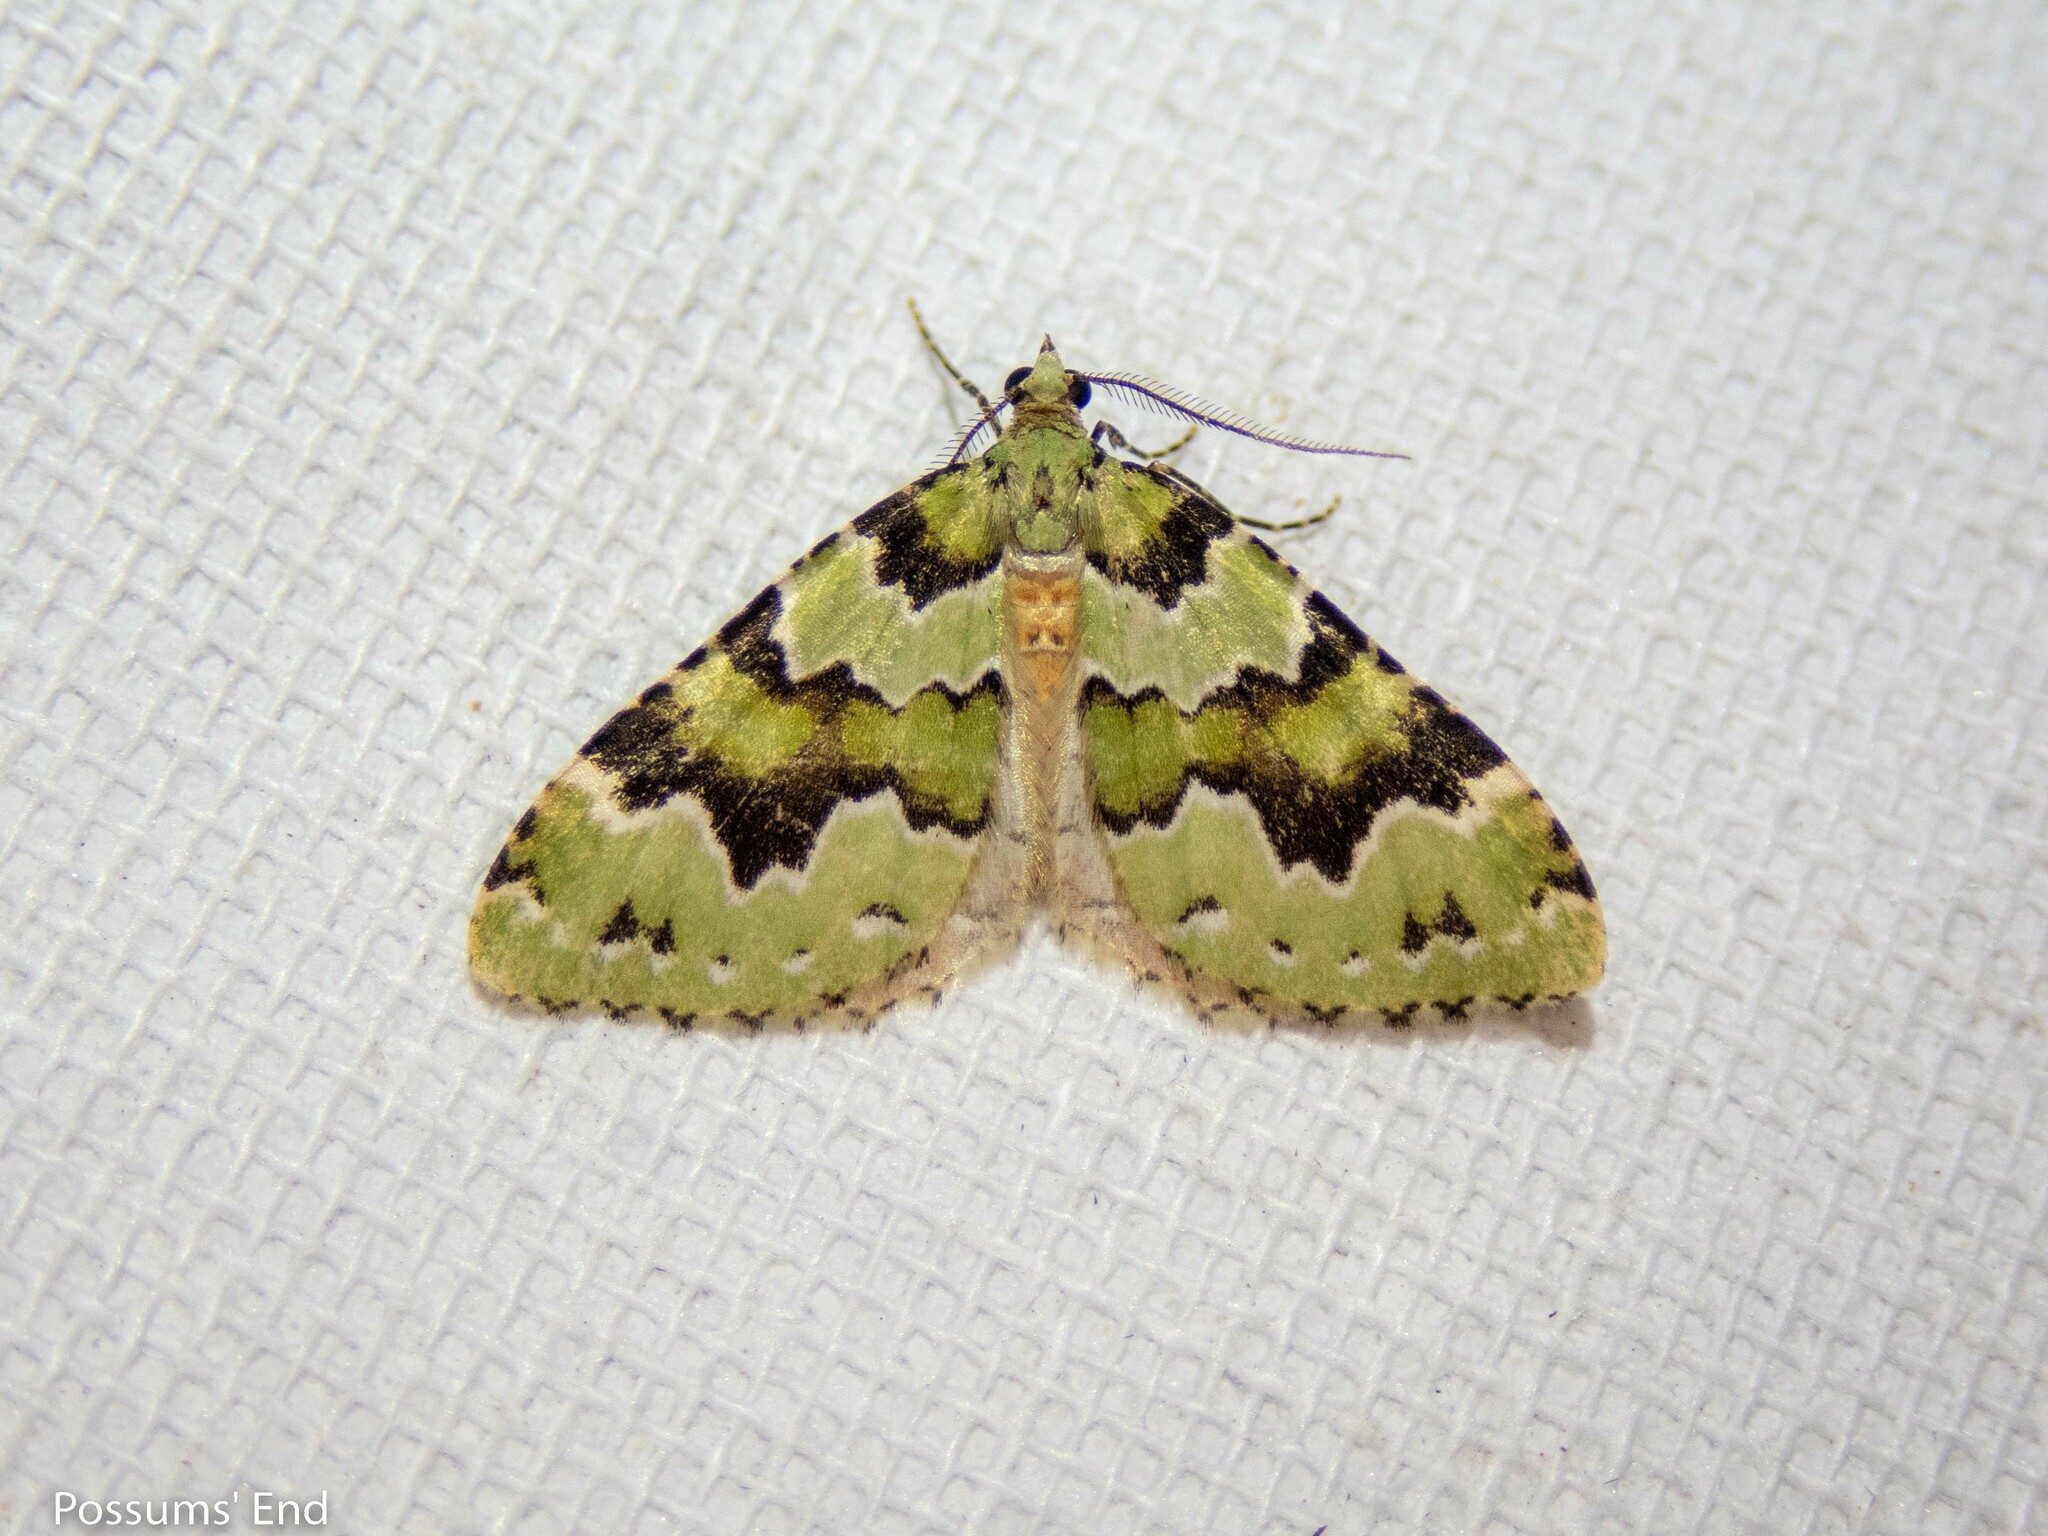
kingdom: Animalia
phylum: Arthropoda
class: Insecta
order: Lepidoptera
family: Geometridae
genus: Asaphodes
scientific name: Asaphodes adonis
